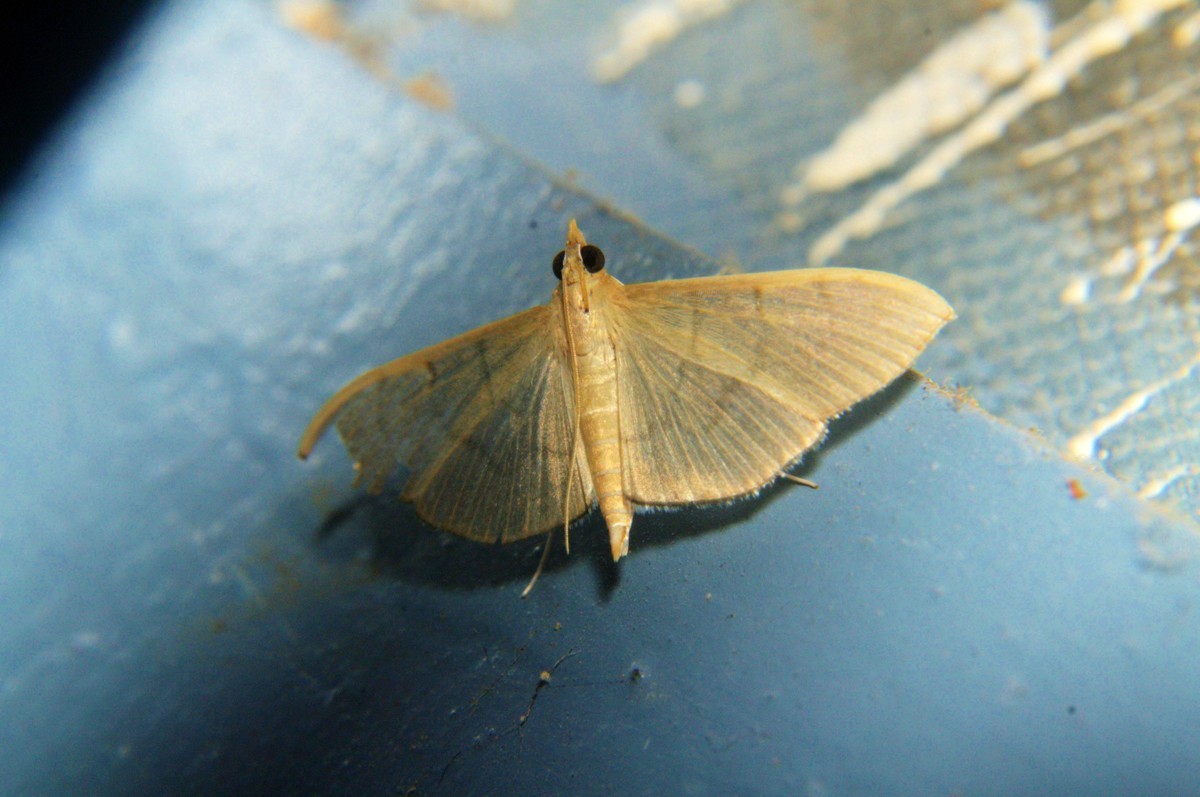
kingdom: Animalia
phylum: Arthropoda
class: Insecta
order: Lepidoptera
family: Crambidae
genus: Lamprophaia
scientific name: Lamprophaia ablactalis
